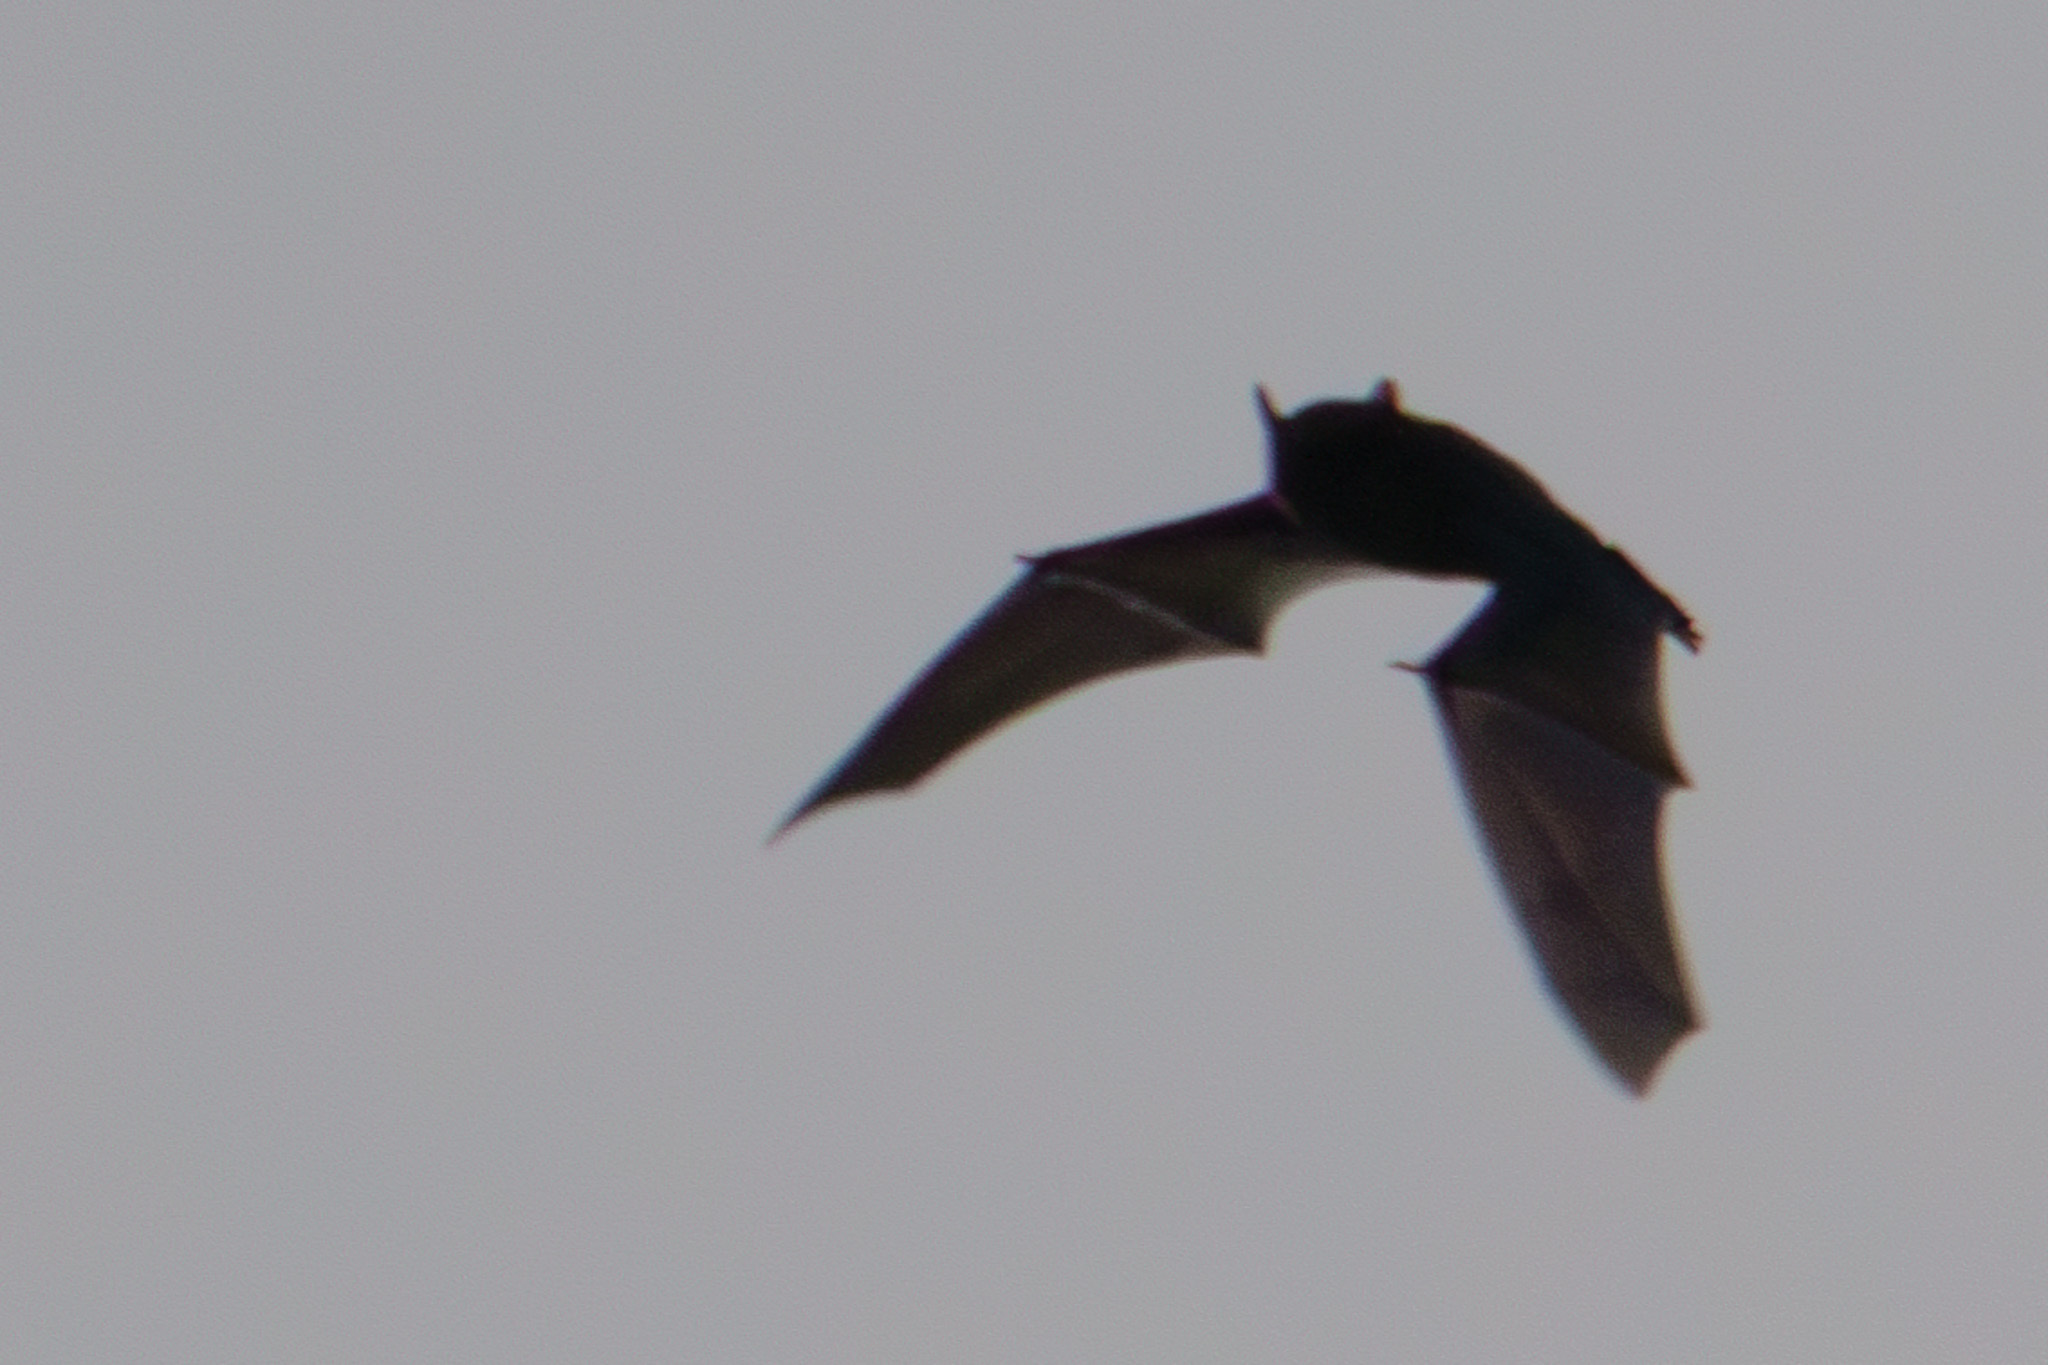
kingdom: Animalia
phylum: Chordata
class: Mammalia
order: Chiroptera
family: Vespertilionidae
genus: Pipistrellus
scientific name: Pipistrellus kuhlii
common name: Kuhl's pipistrelle
